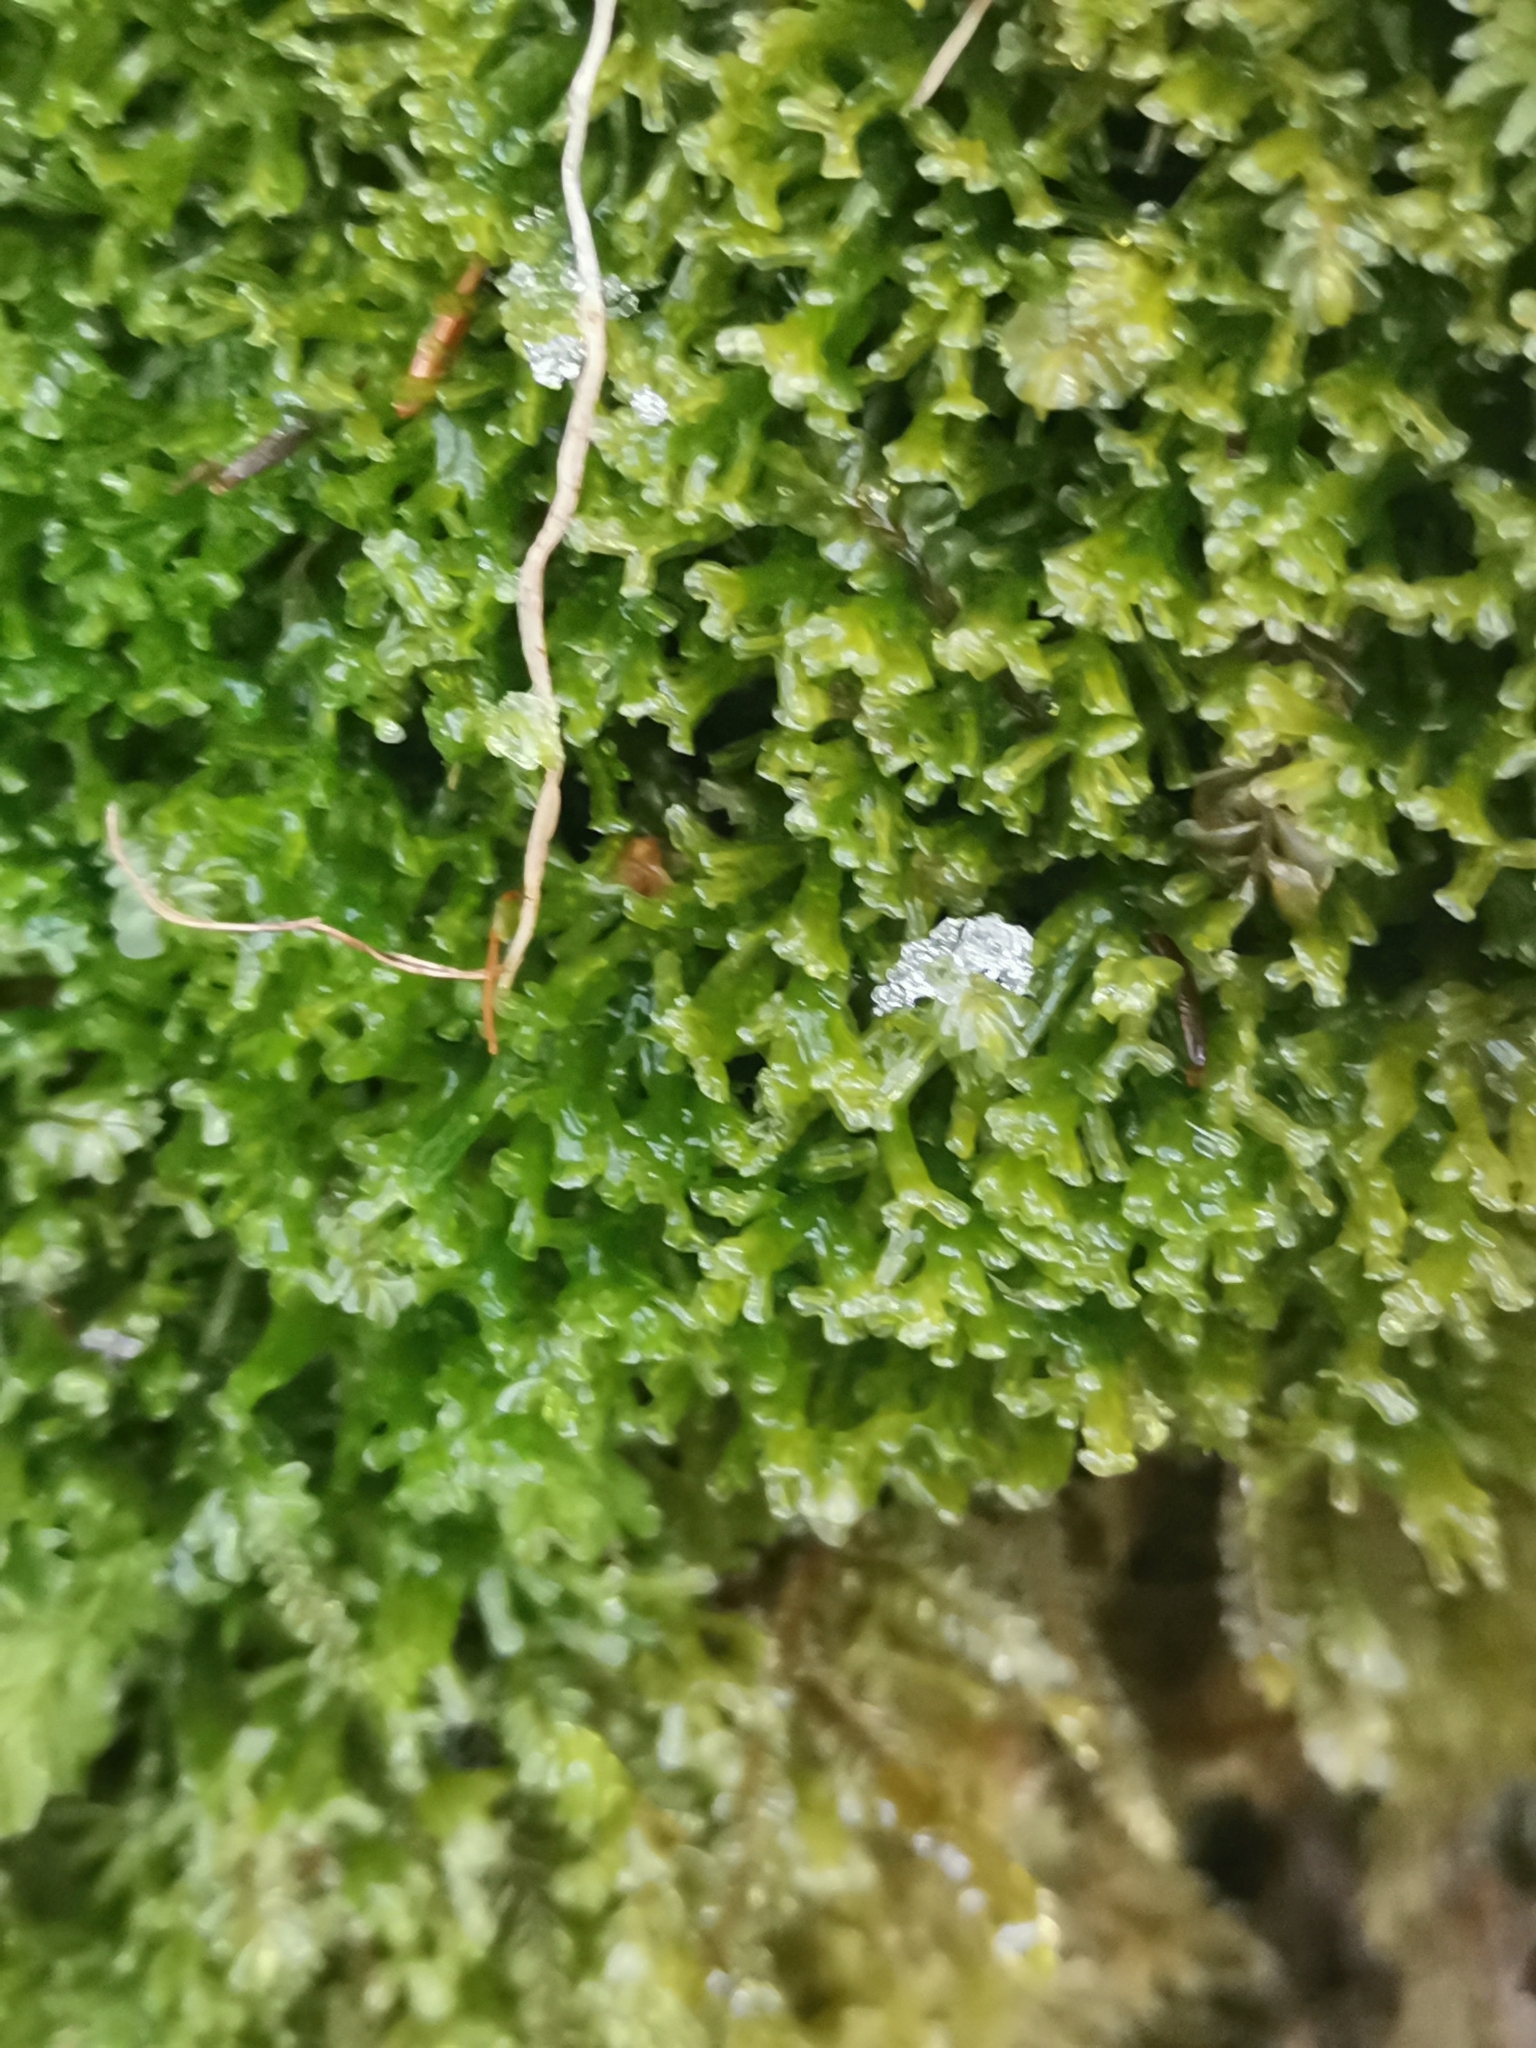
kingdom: Plantae
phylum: Marchantiophyta
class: Jungermanniopsida
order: Metzgeriales
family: Metzgeriaceae
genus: Metzgeria
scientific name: Metzgeria conjugata
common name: Rock veilwort
